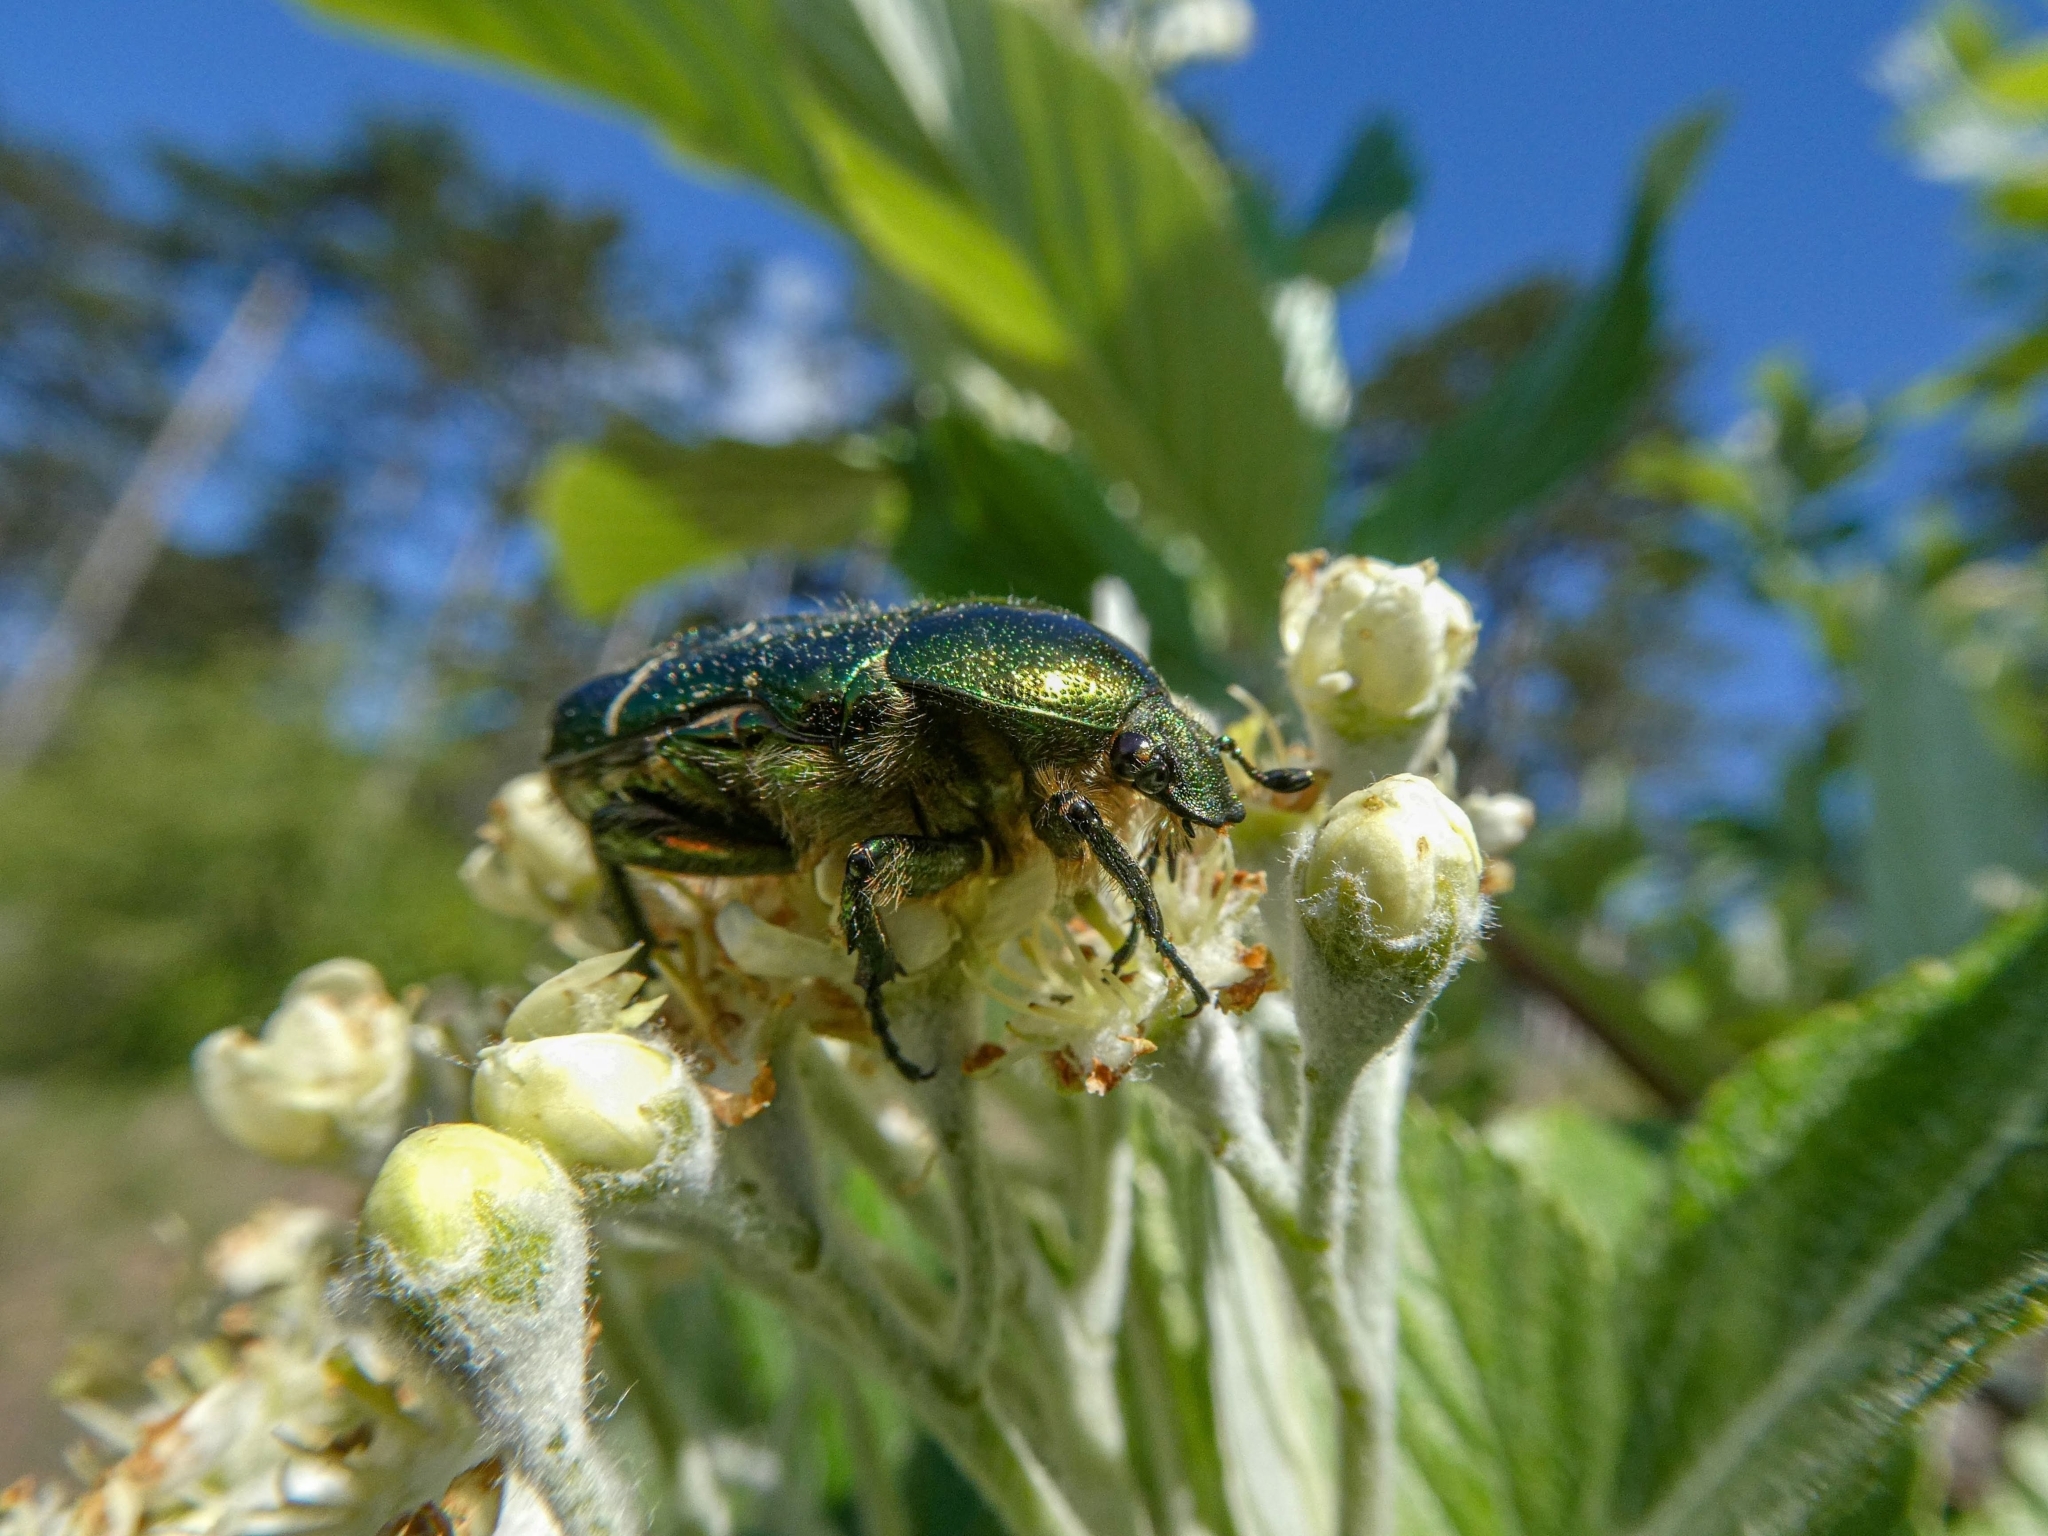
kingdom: Animalia
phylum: Arthropoda
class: Insecta
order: Coleoptera
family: Scarabaeidae
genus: Cetonia
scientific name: Cetonia aurata
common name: Rose chafer
